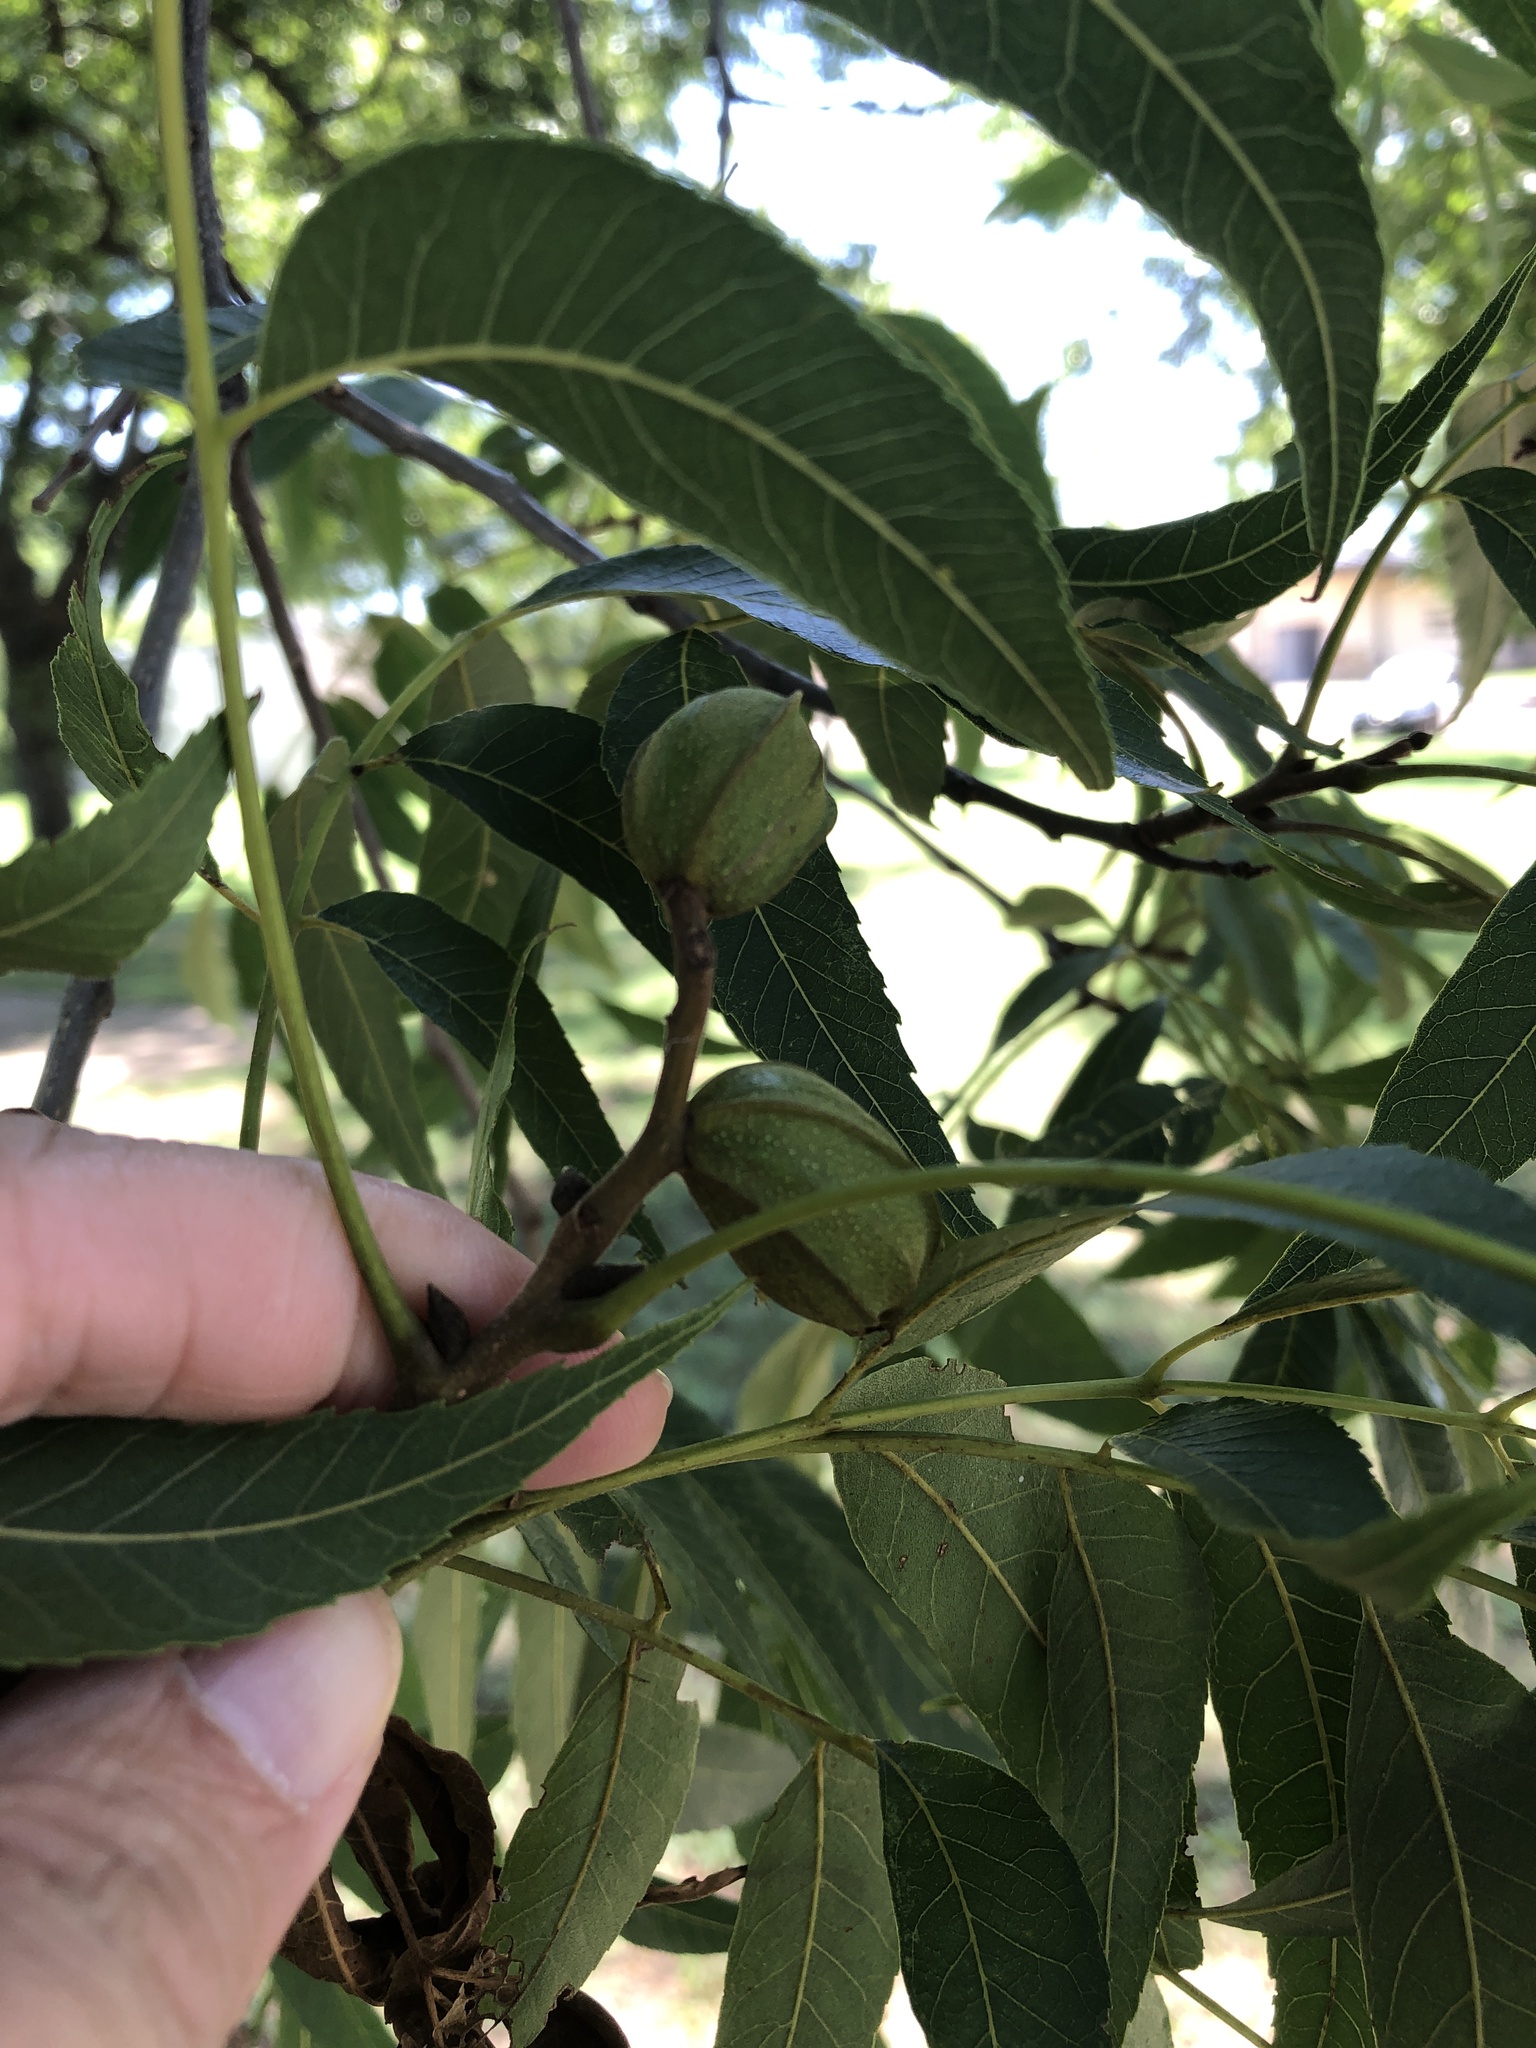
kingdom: Plantae
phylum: Tracheophyta
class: Magnoliopsida
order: Fagales
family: Juglandaceae
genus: Carya
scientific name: Carya illinoinensis
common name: Pecan
